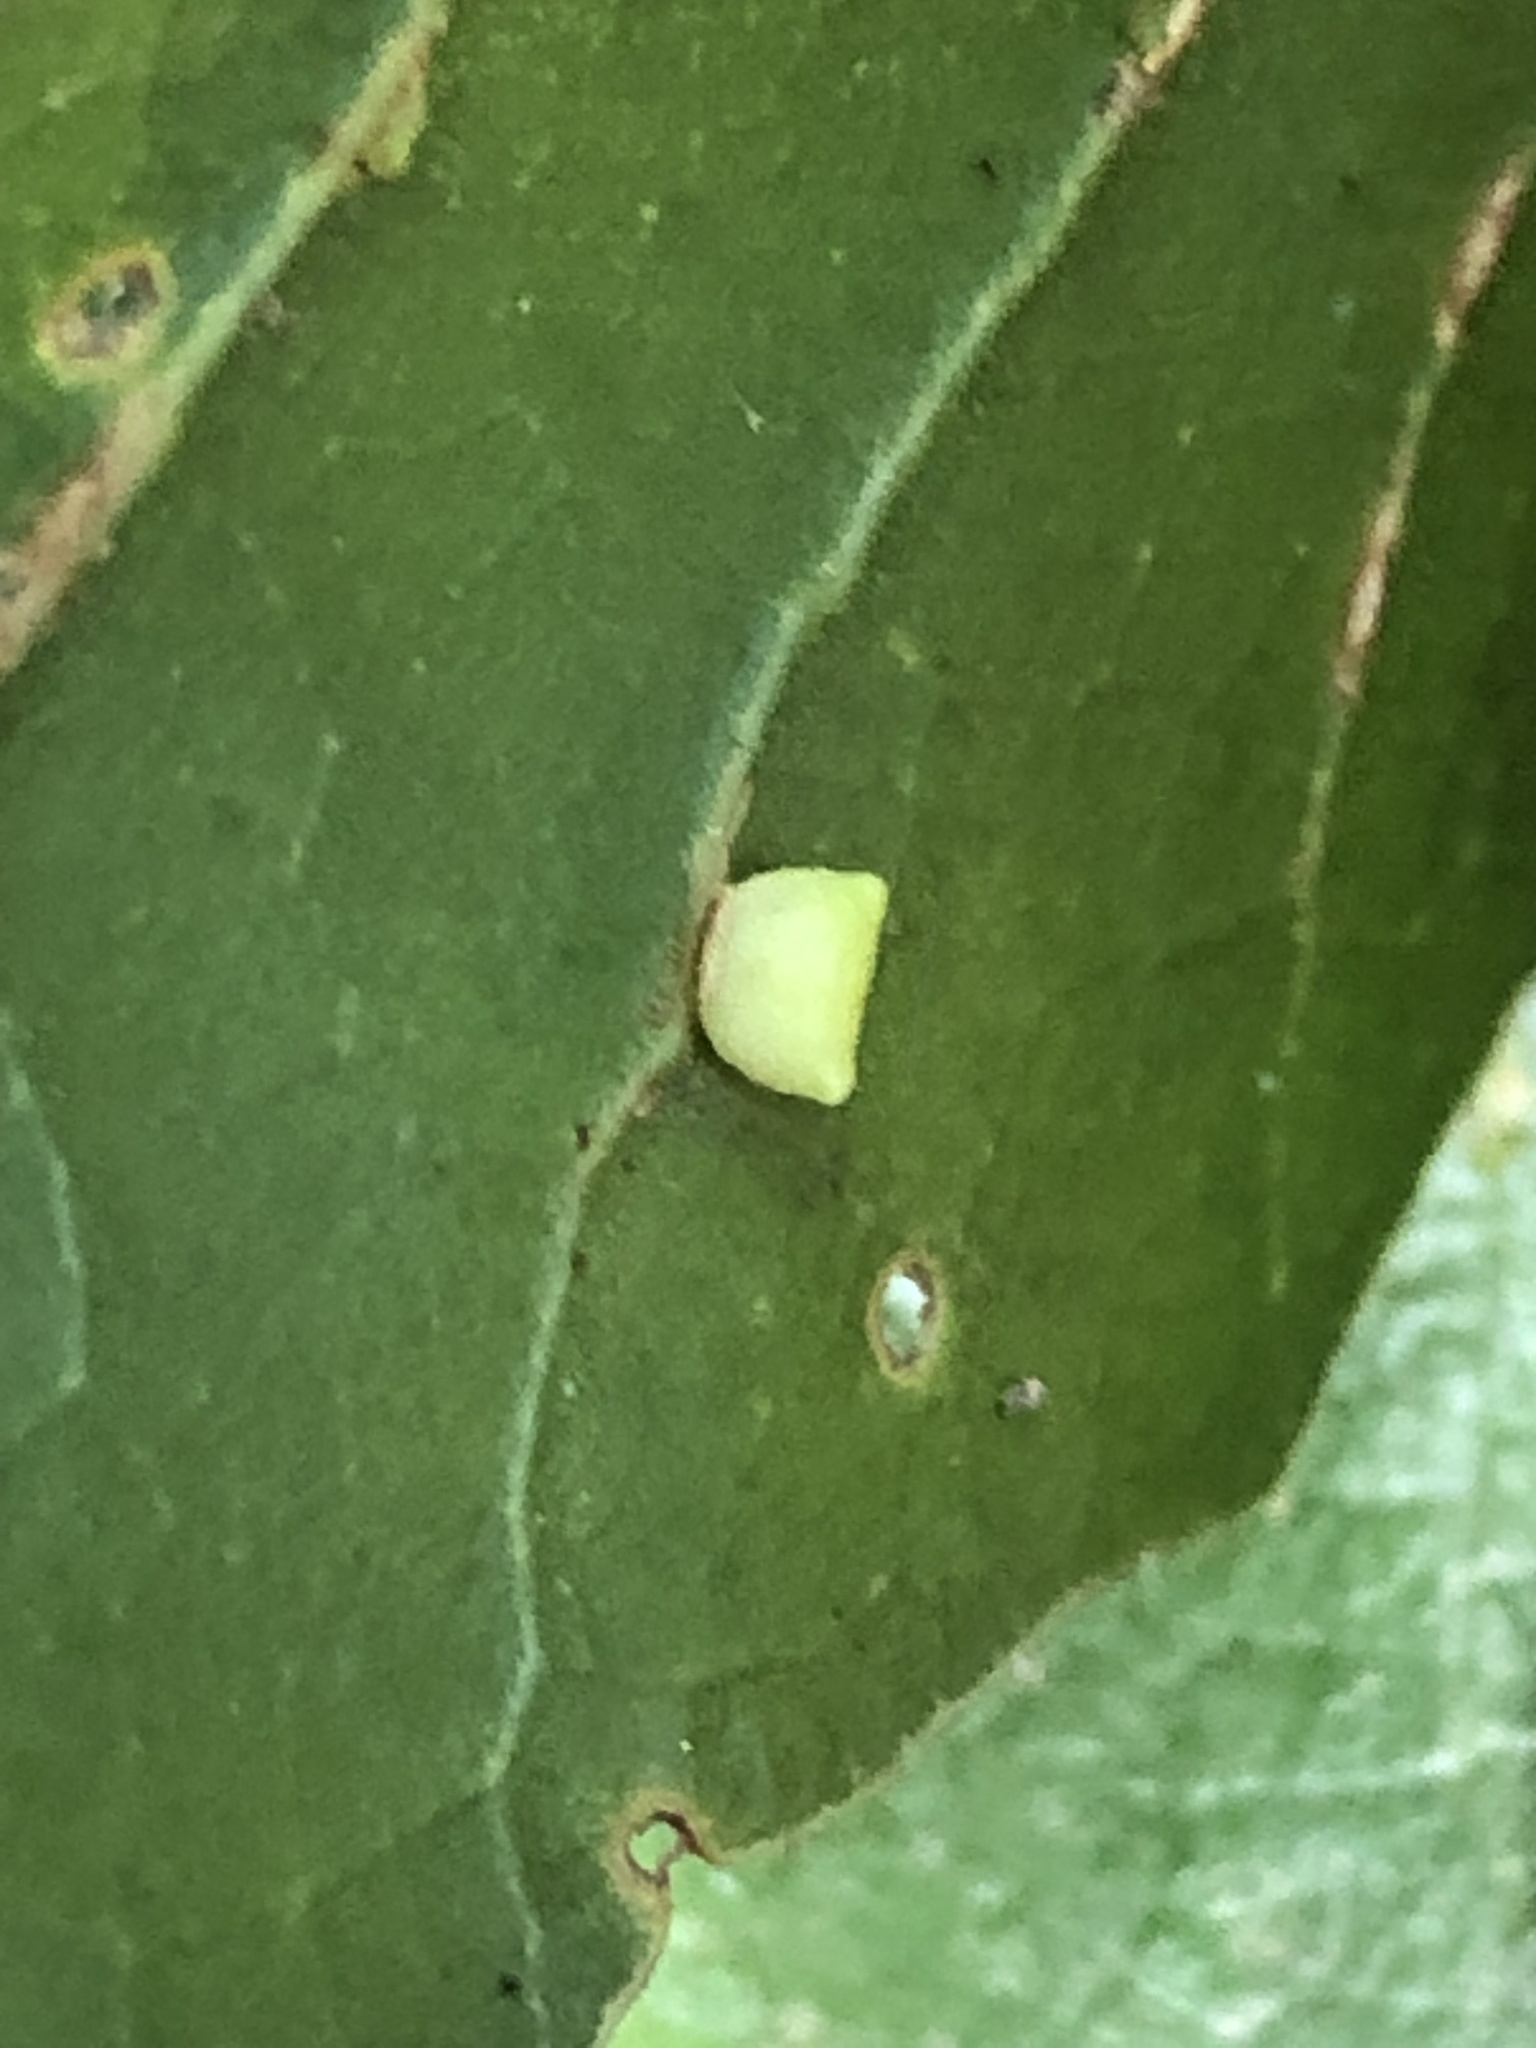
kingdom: Animalia
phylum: Arthropoda
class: Insecta
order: Hymenoptera
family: Cynipidae
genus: Dryocosmus
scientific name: Dryocosmus
